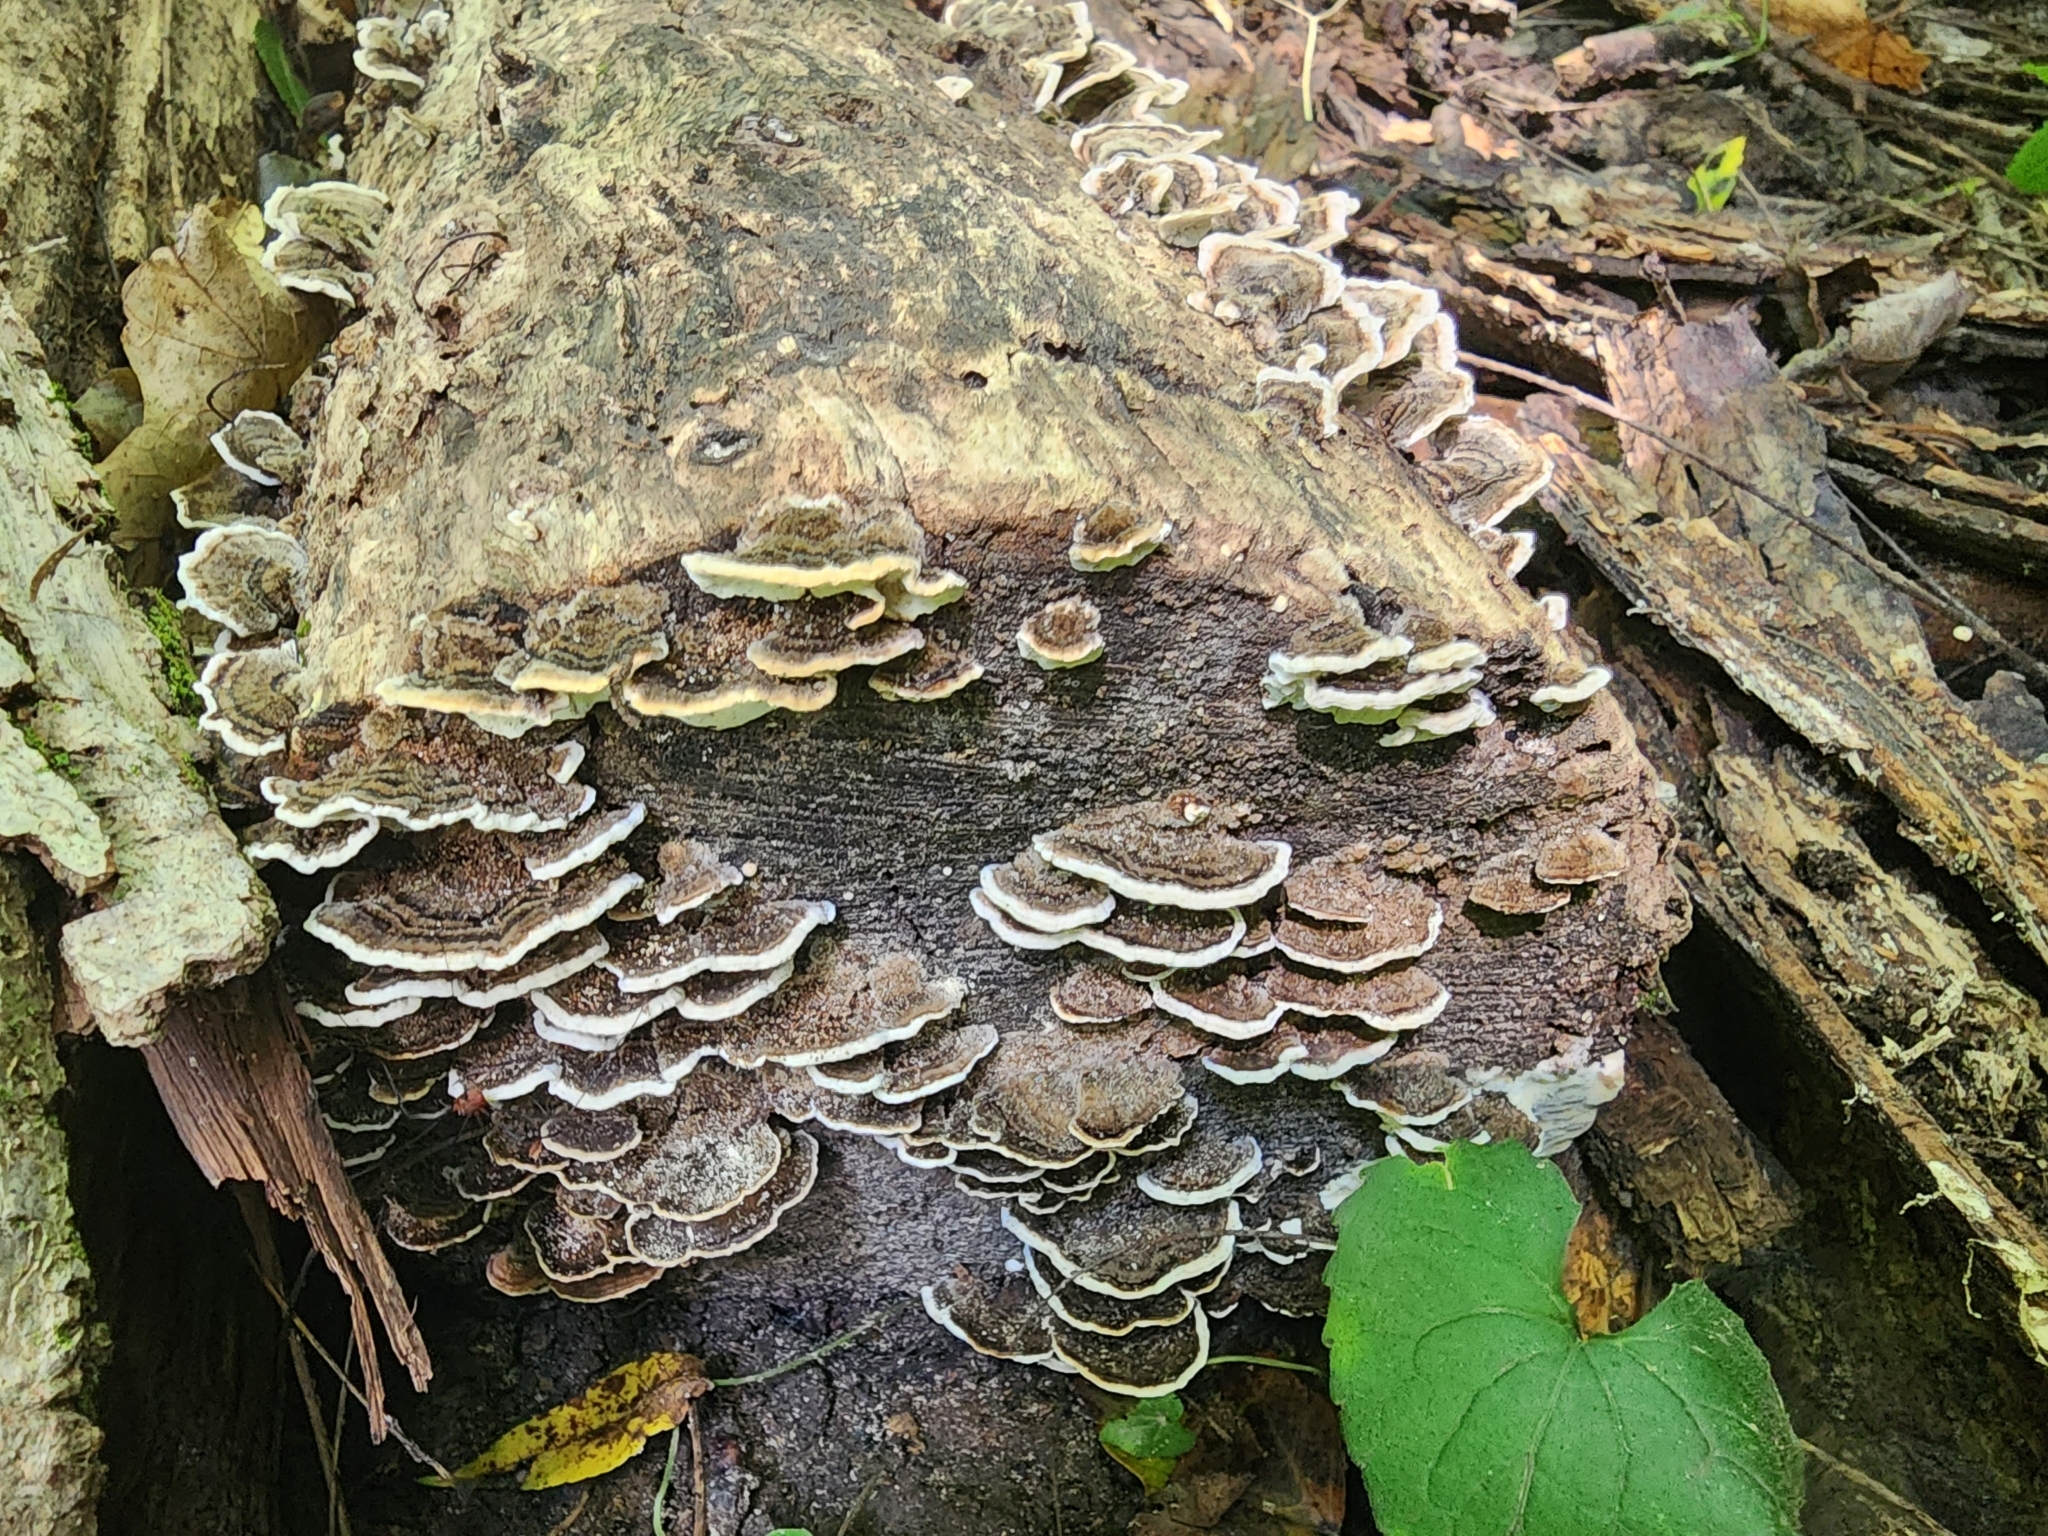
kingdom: Fungi
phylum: Basidiomycota
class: Agaricomycetes
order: Polyporales
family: Polyporaceae
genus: Trametes
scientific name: Trametes versicolor
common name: Turkeytail
